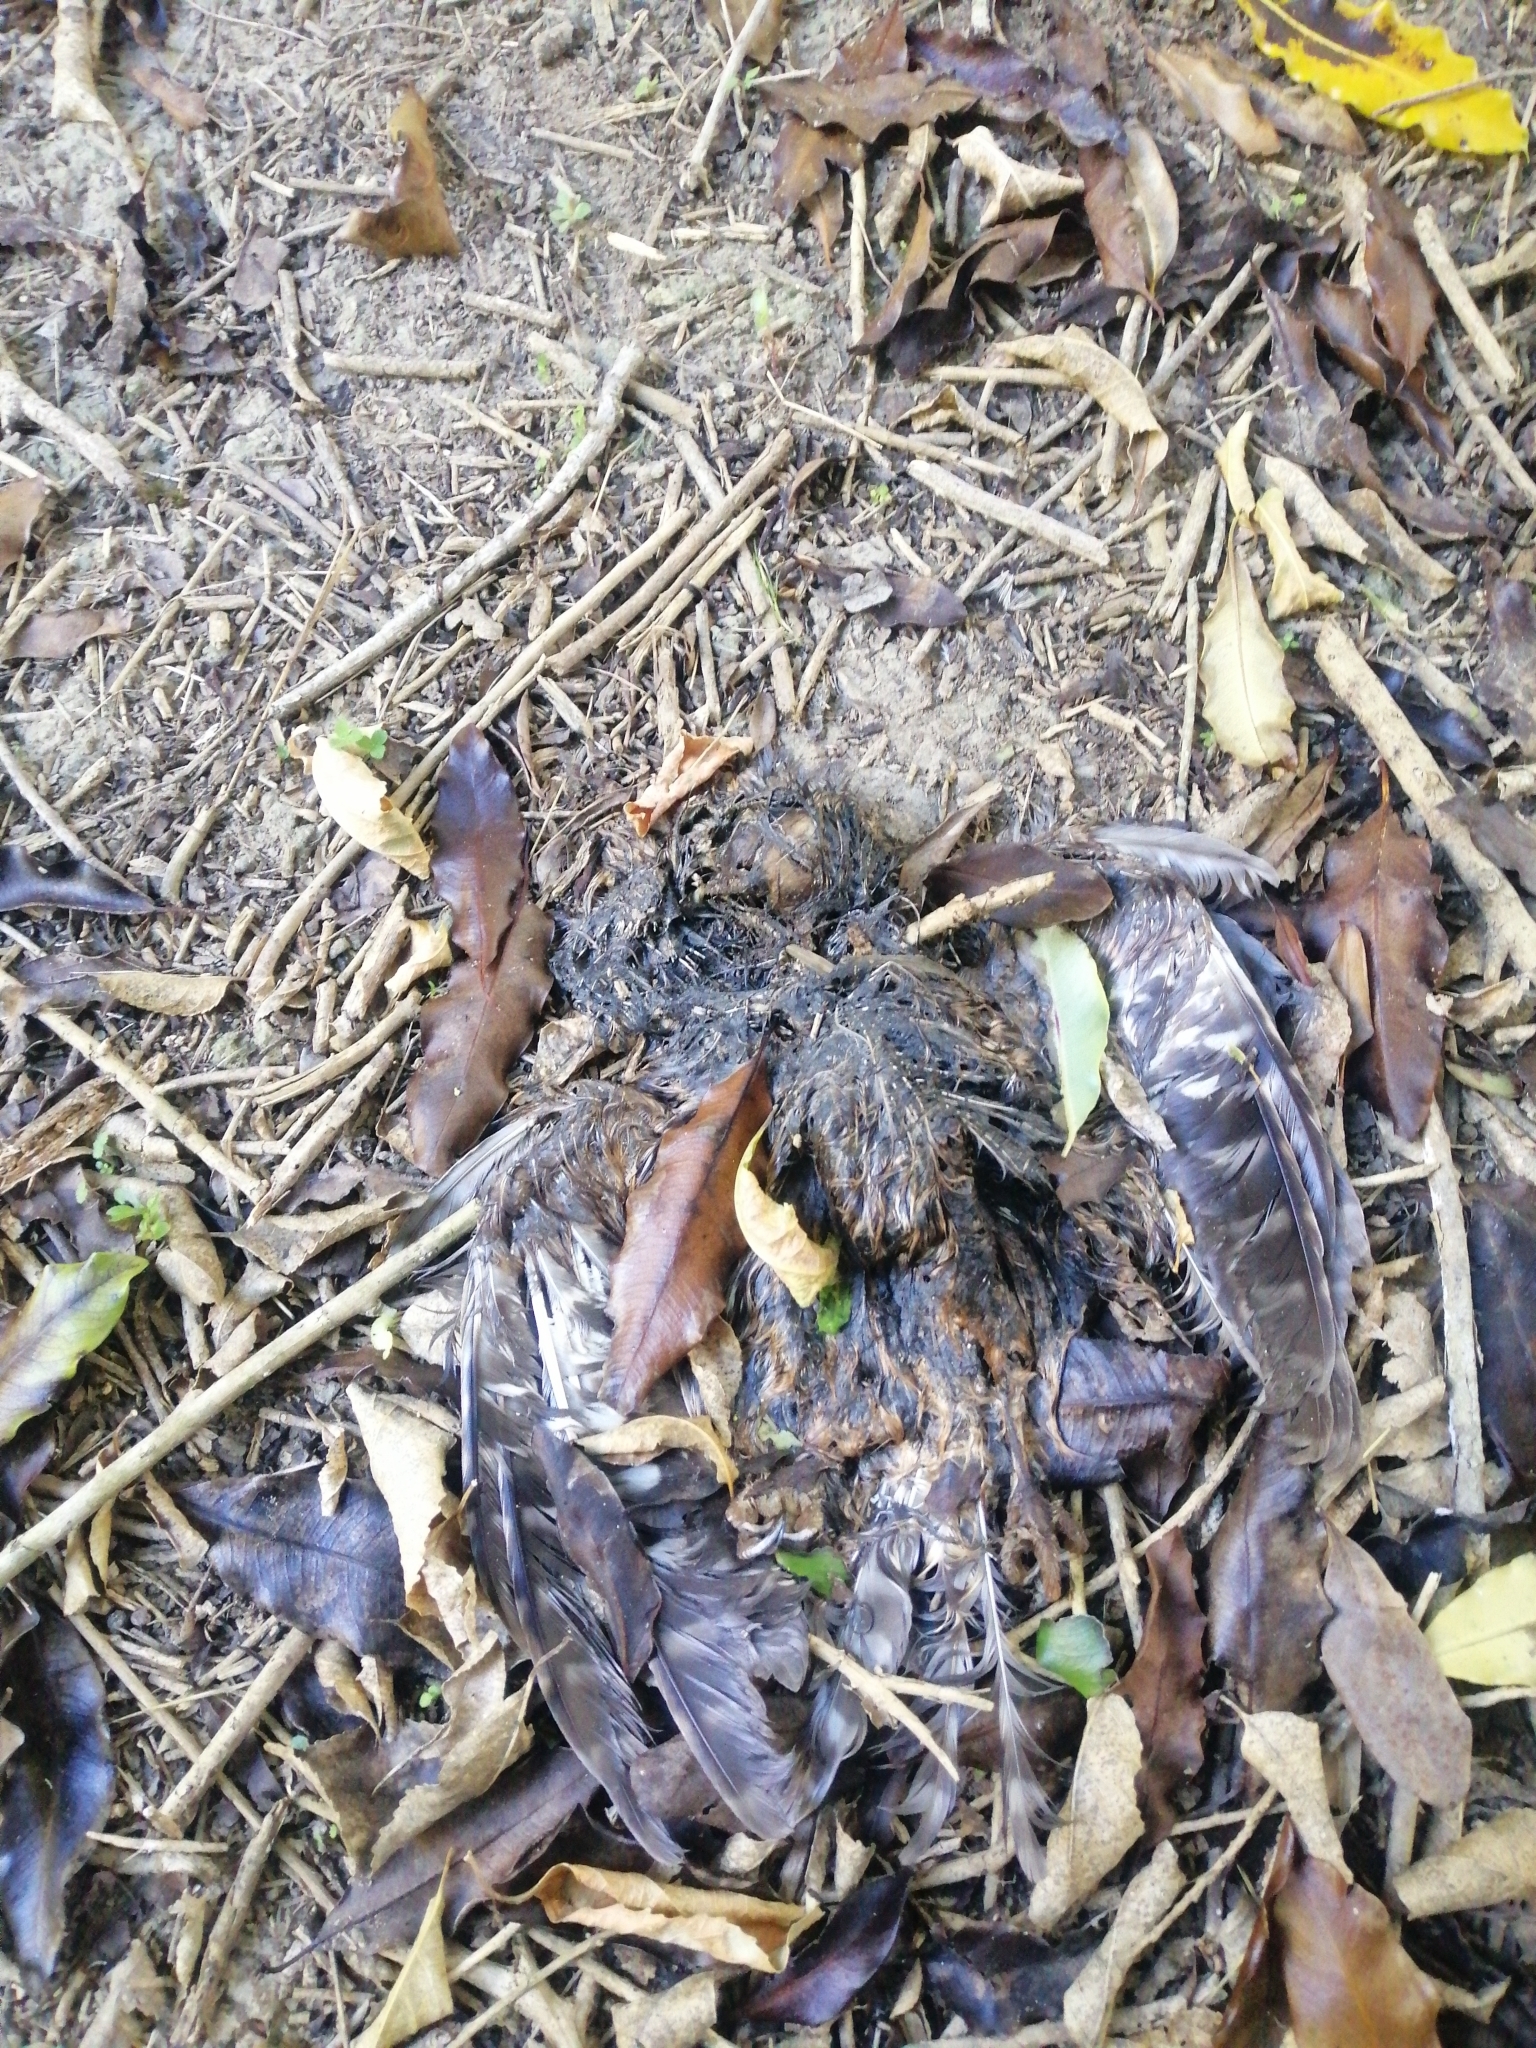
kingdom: Animalia
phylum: Chordata
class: Aves
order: Strigiformes
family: Strigidae
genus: Ninox
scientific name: Ninox novaeseelandiae
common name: Morepork
